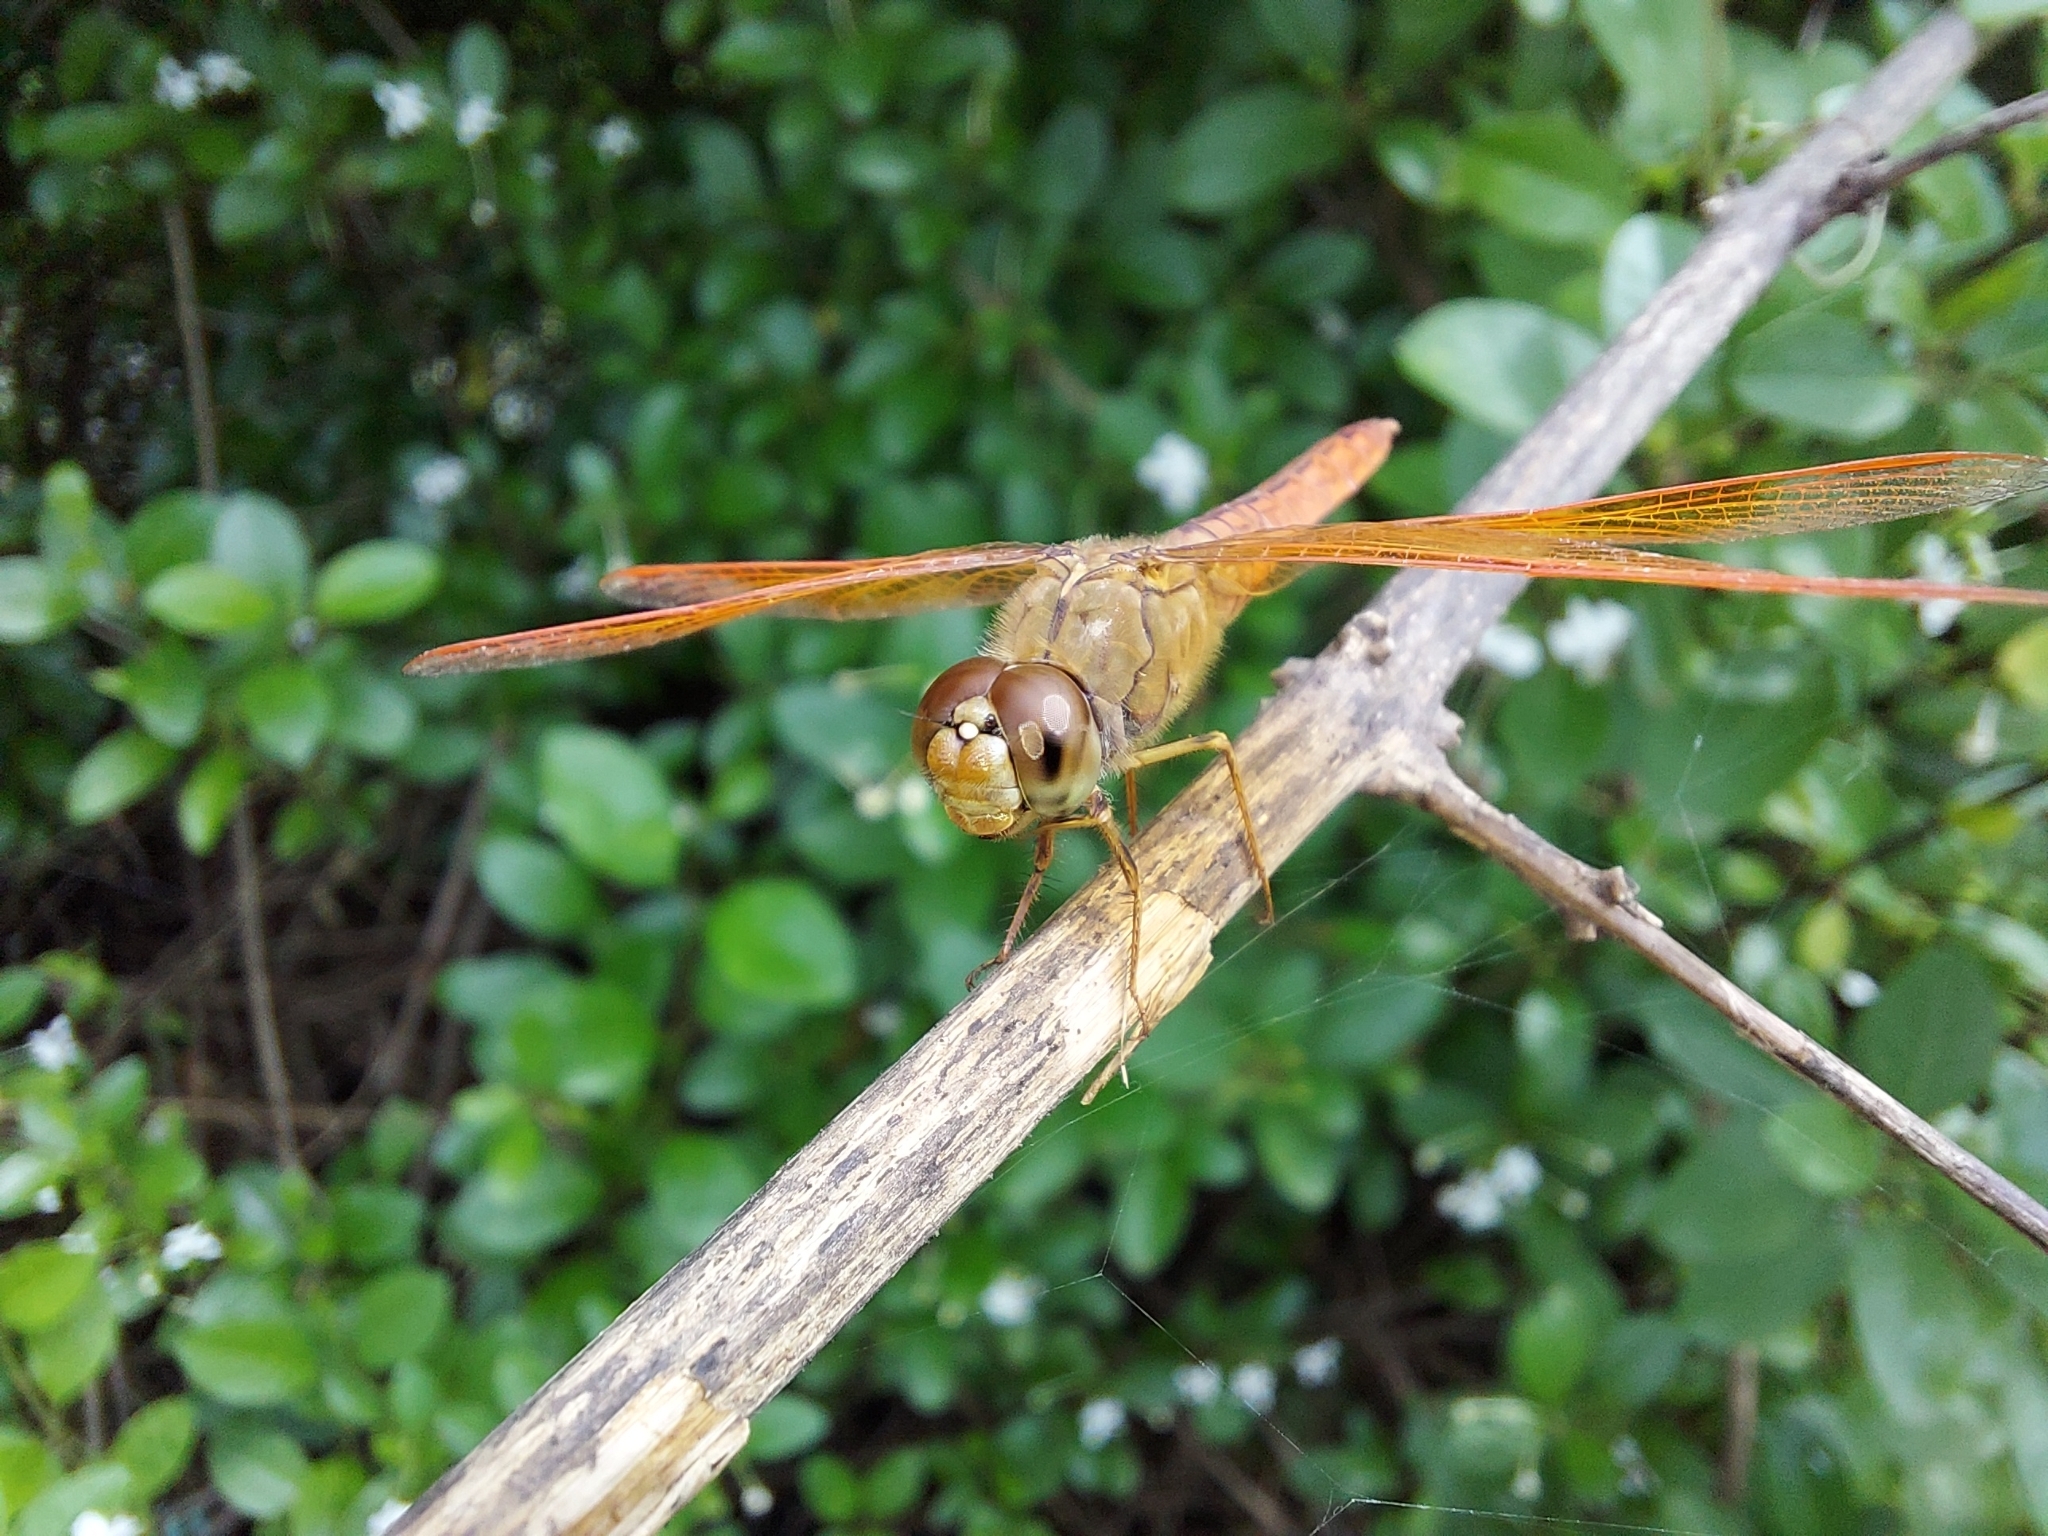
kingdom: Animalia
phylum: Arthropoda
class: Insecta
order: Odonata
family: Libellulidae
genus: Brachythemis
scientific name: Brachythemis contaminata
